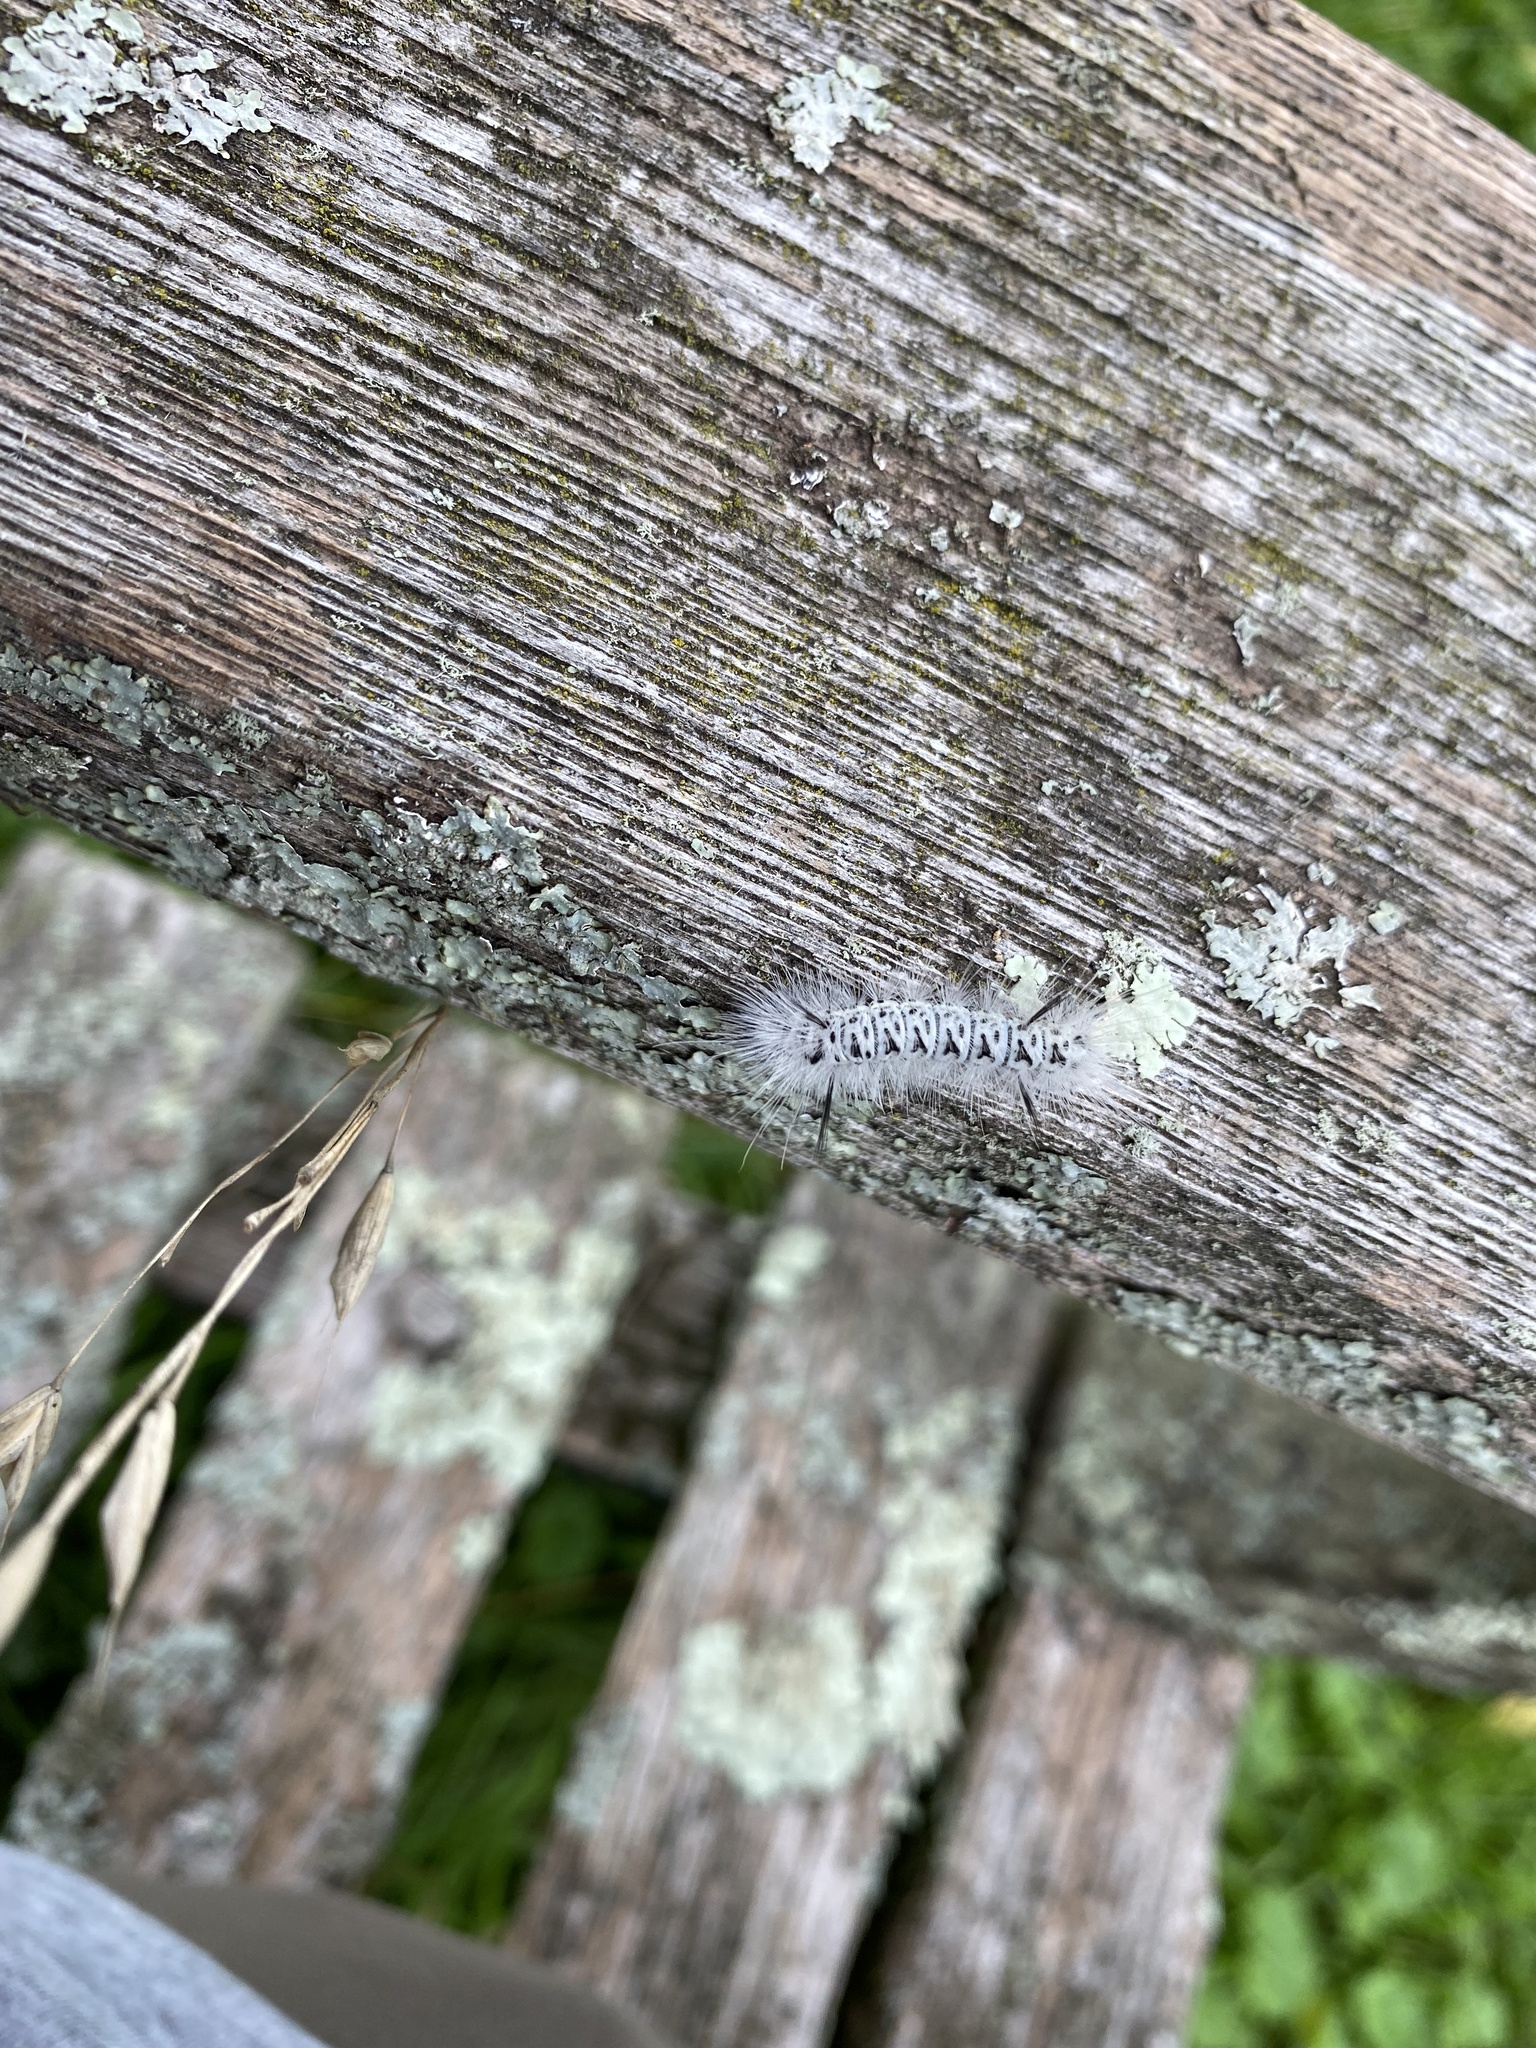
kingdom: Animalia
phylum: Arthropoda
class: Insecta
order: Lepidoptera
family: Erebidae
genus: Lophocampa
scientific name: Lophocampa caryae
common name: Hickory tussock moth
